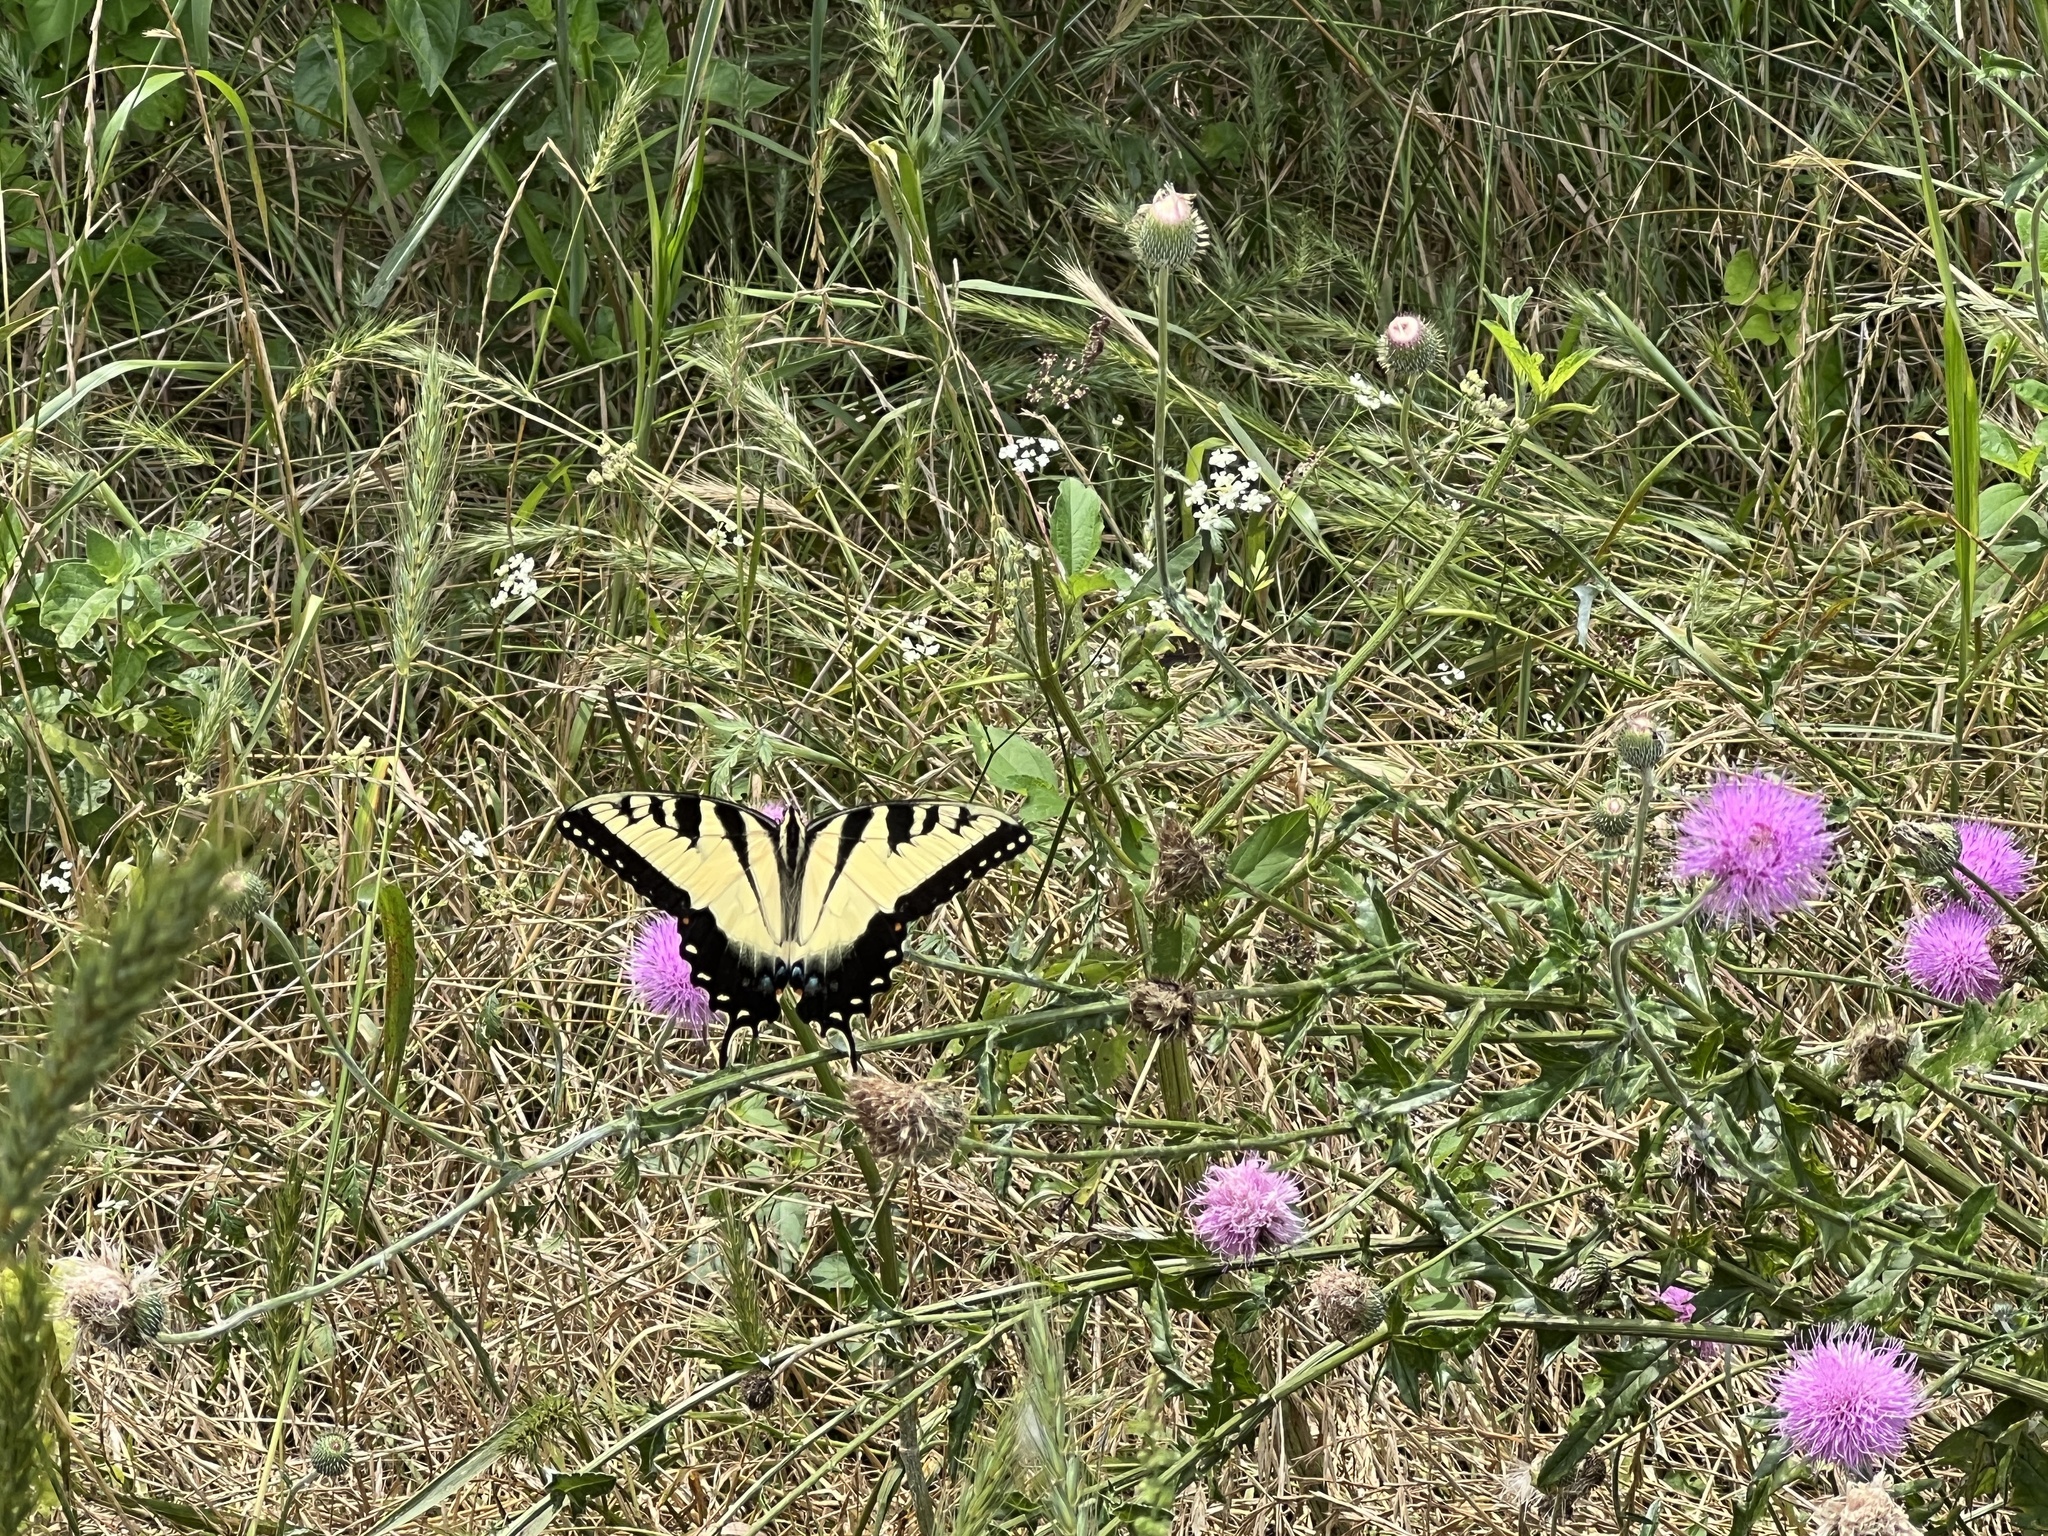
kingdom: Animalia
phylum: Arthropoda
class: Insecta
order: Lepidoptera
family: Papilionidae
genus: Papilio
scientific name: Papilio glaucus
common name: Tiger swallowtail
